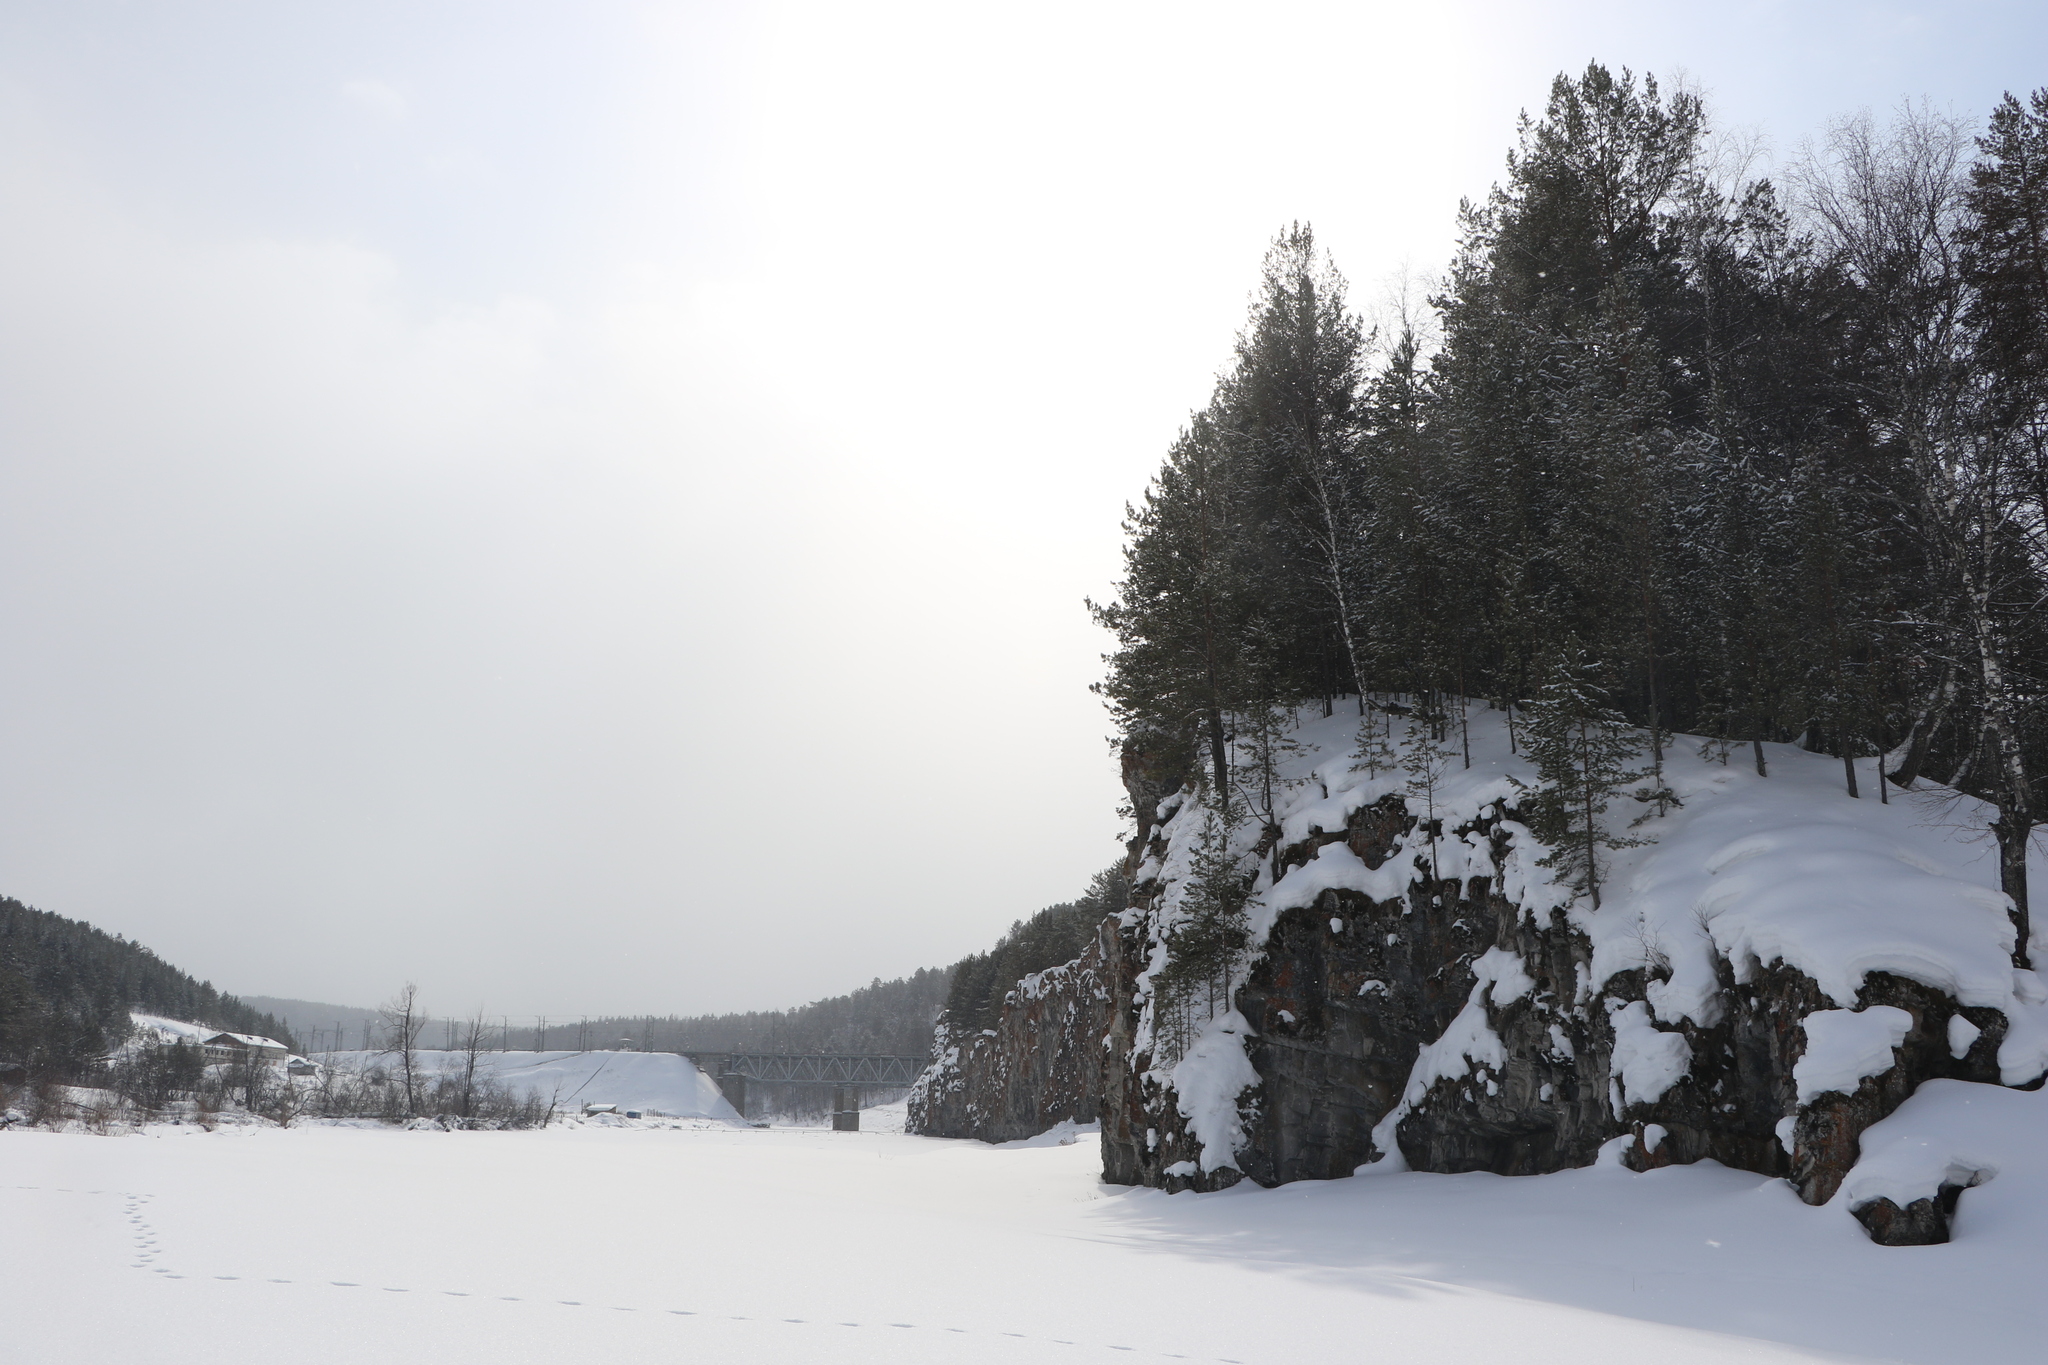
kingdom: Plantae
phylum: Tracheophyta
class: Pinopsida
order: Pinales
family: Pinaceae
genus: Pinus
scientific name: Pinus sylvestris
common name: Scots pine
